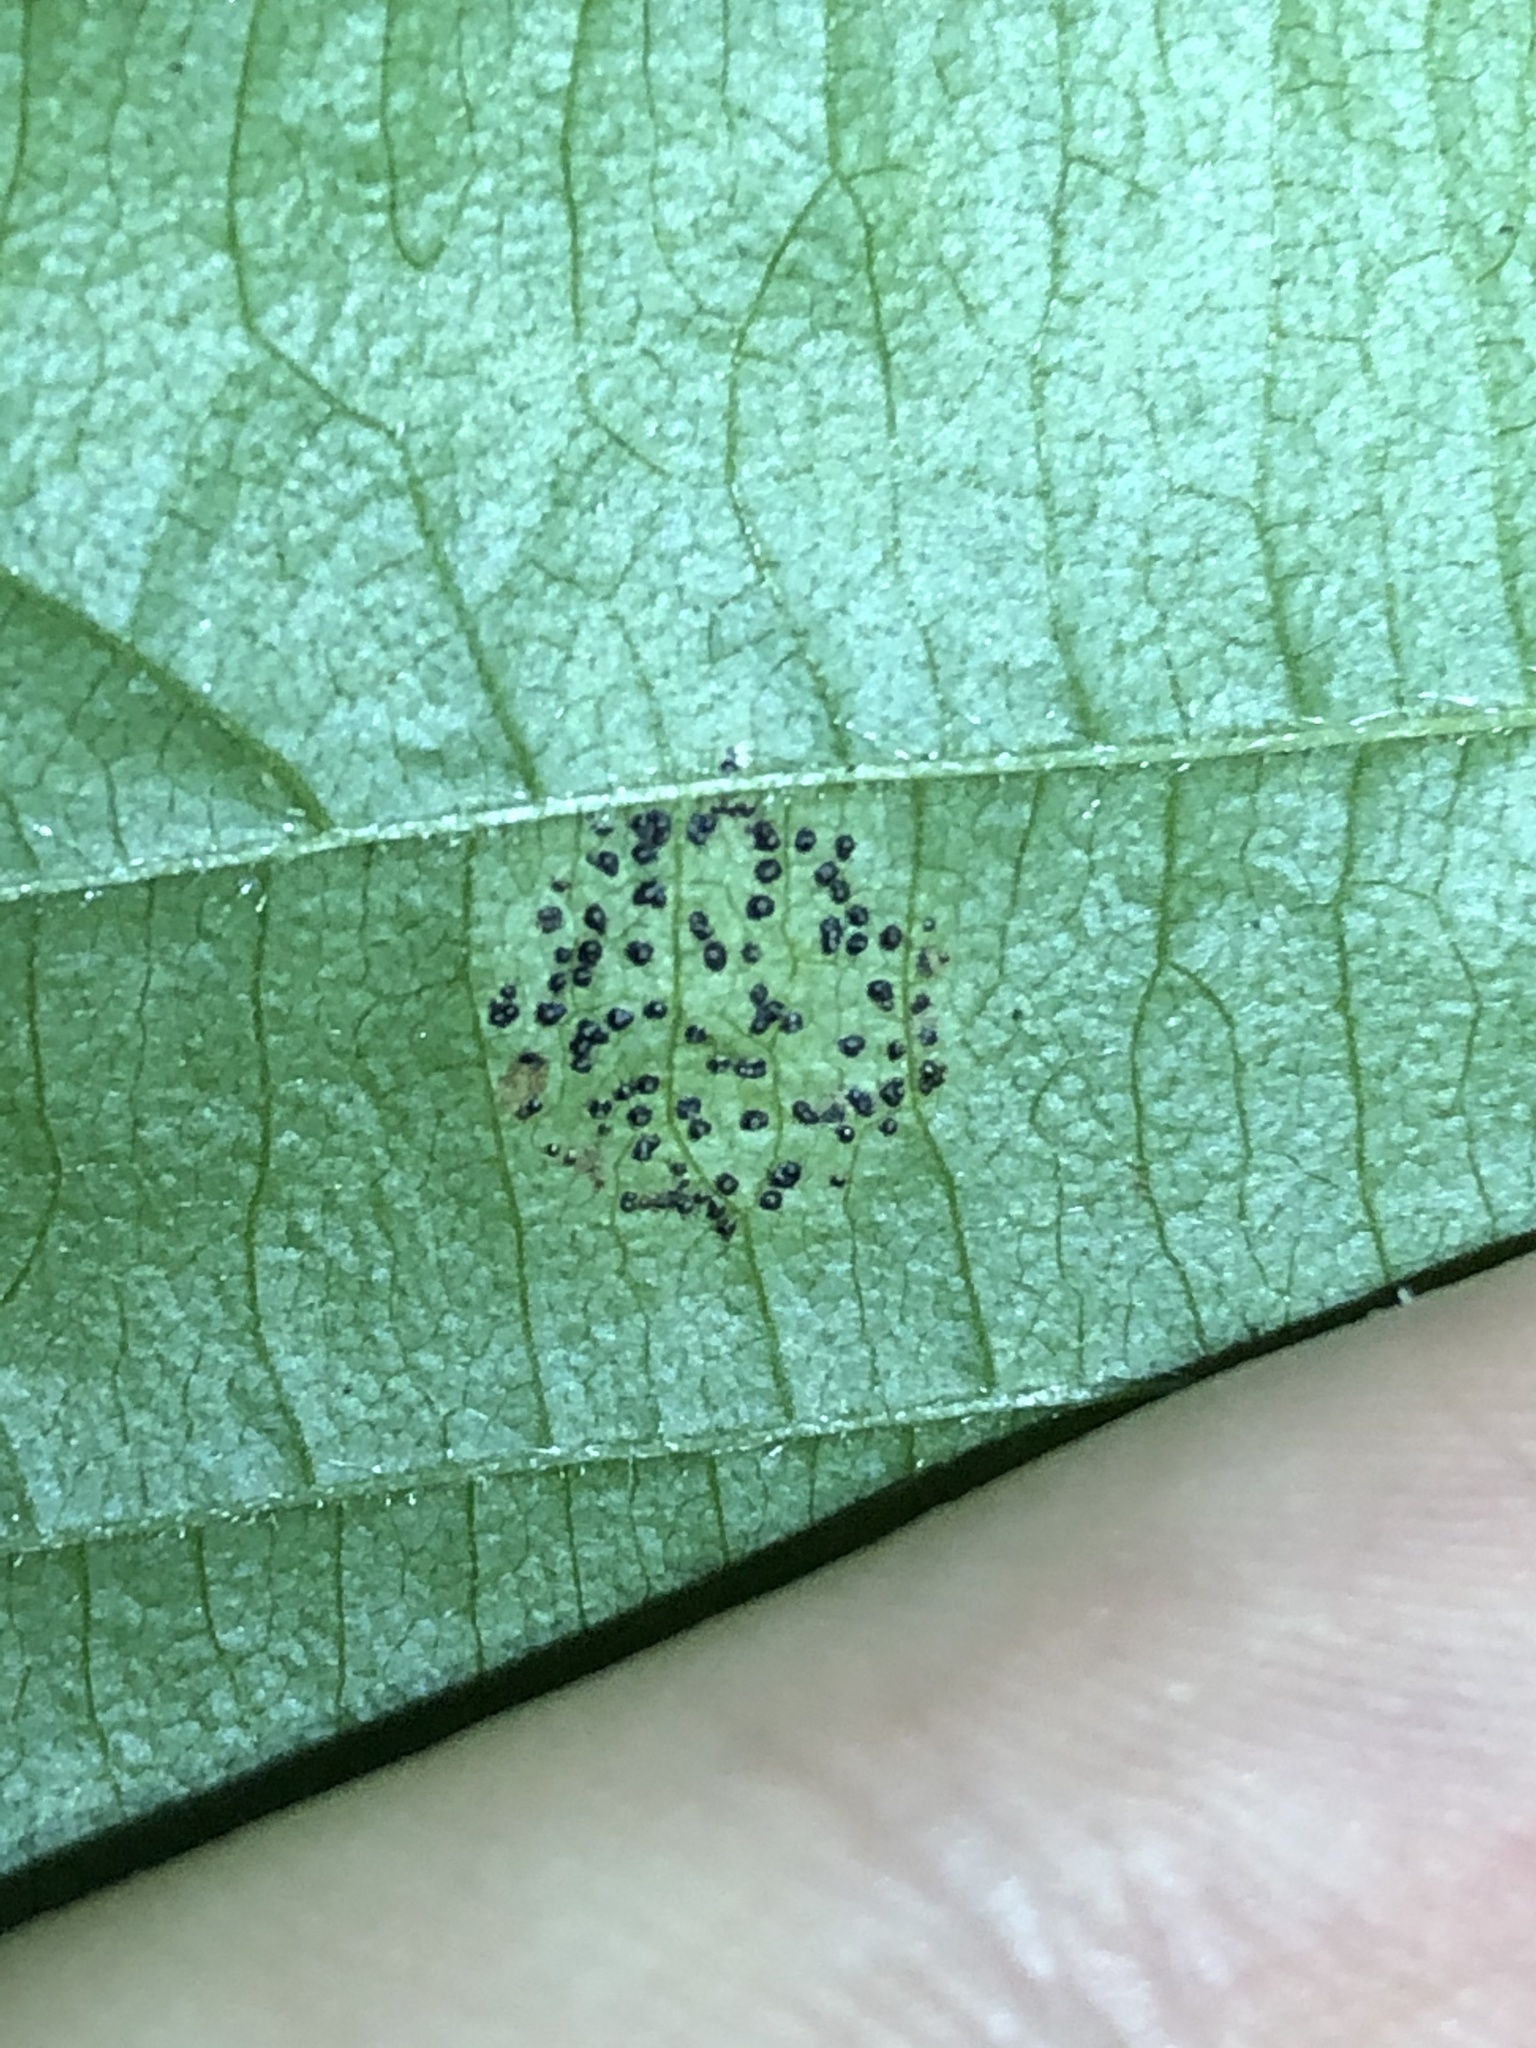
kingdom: Fungi
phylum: Ascomycota
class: Leotiomycetes
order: Rhytismatales
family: Rhytismataceae
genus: Rhytisma
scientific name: Rhytisma punctatum
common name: Speckled tar spot
